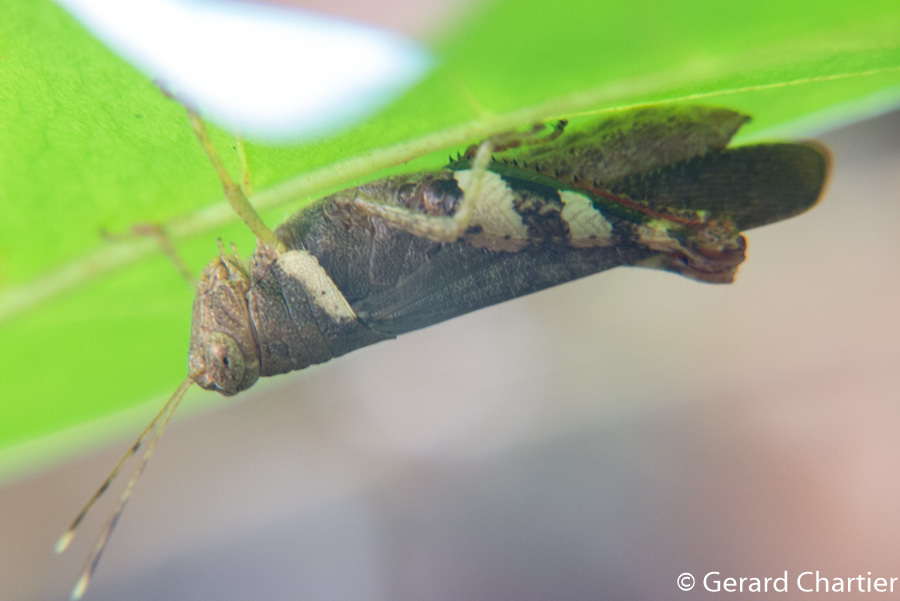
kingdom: Animalia
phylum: Arthropoda
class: Insecta
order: Orthoptera
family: Acrididae
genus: Apalacris
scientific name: Apalacris varicornis
